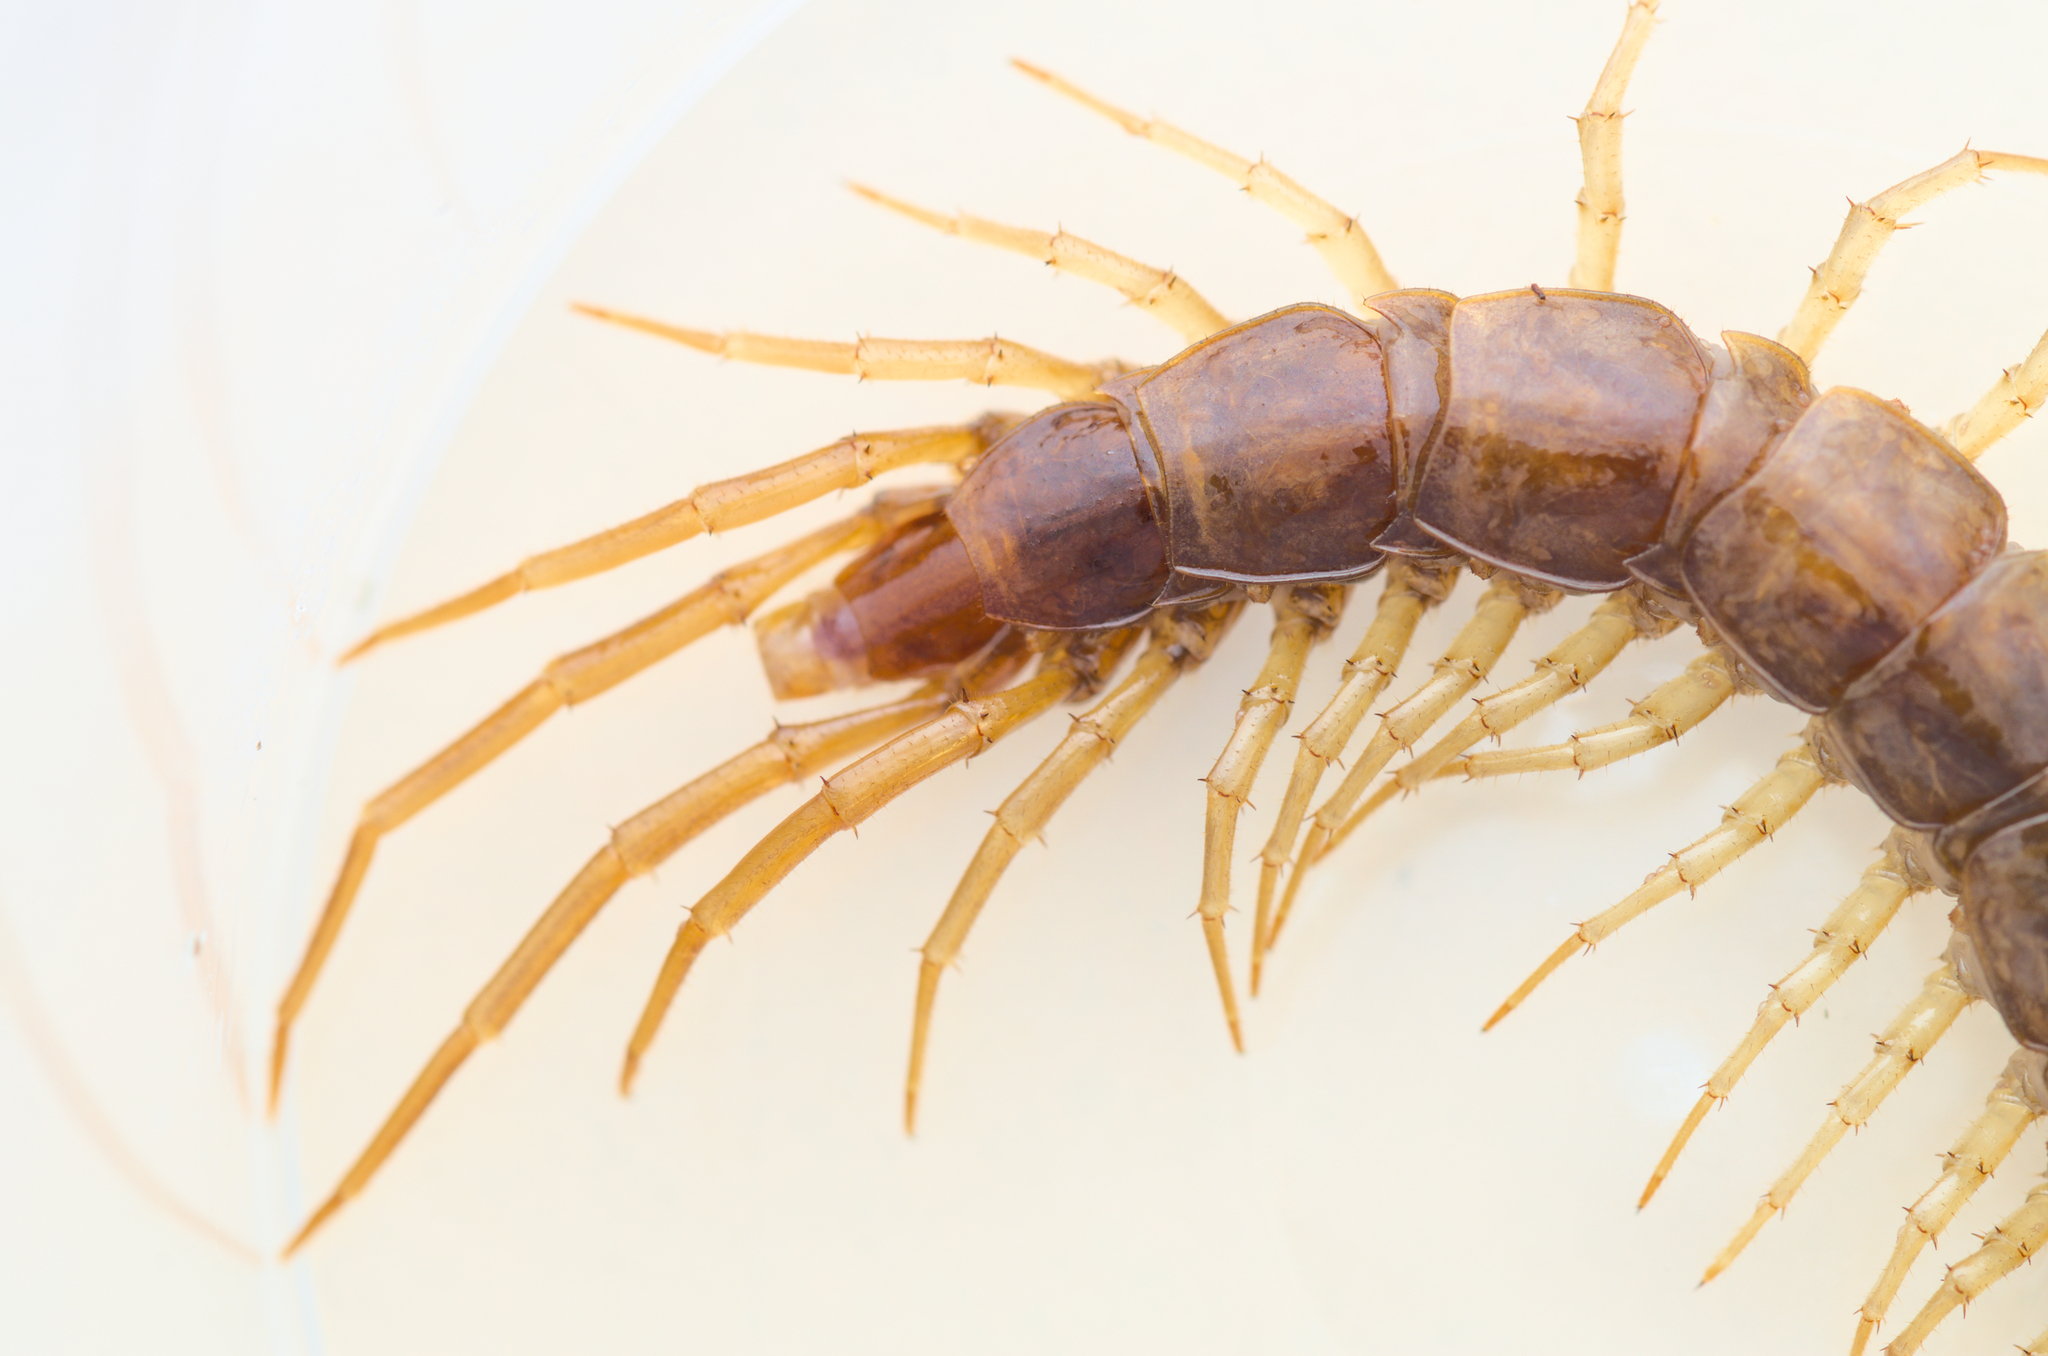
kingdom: Animalia
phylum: Arthropoda
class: Chilopoda
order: Lithobiomorpha
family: Lithobiidae
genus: Lithobius
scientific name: Lithobius forficatus
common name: Centipede
